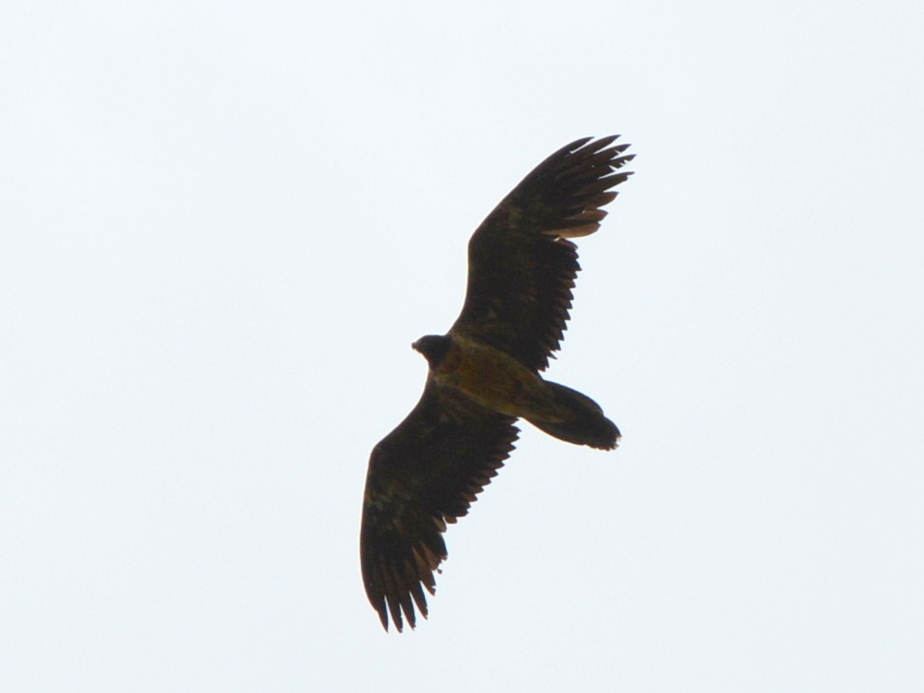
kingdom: Animalia
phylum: Chordata
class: Aves
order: Accipitriformes
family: Accipitridae
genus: Gypaetus
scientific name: Gypaetus barbatus
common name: Bearded vulture
